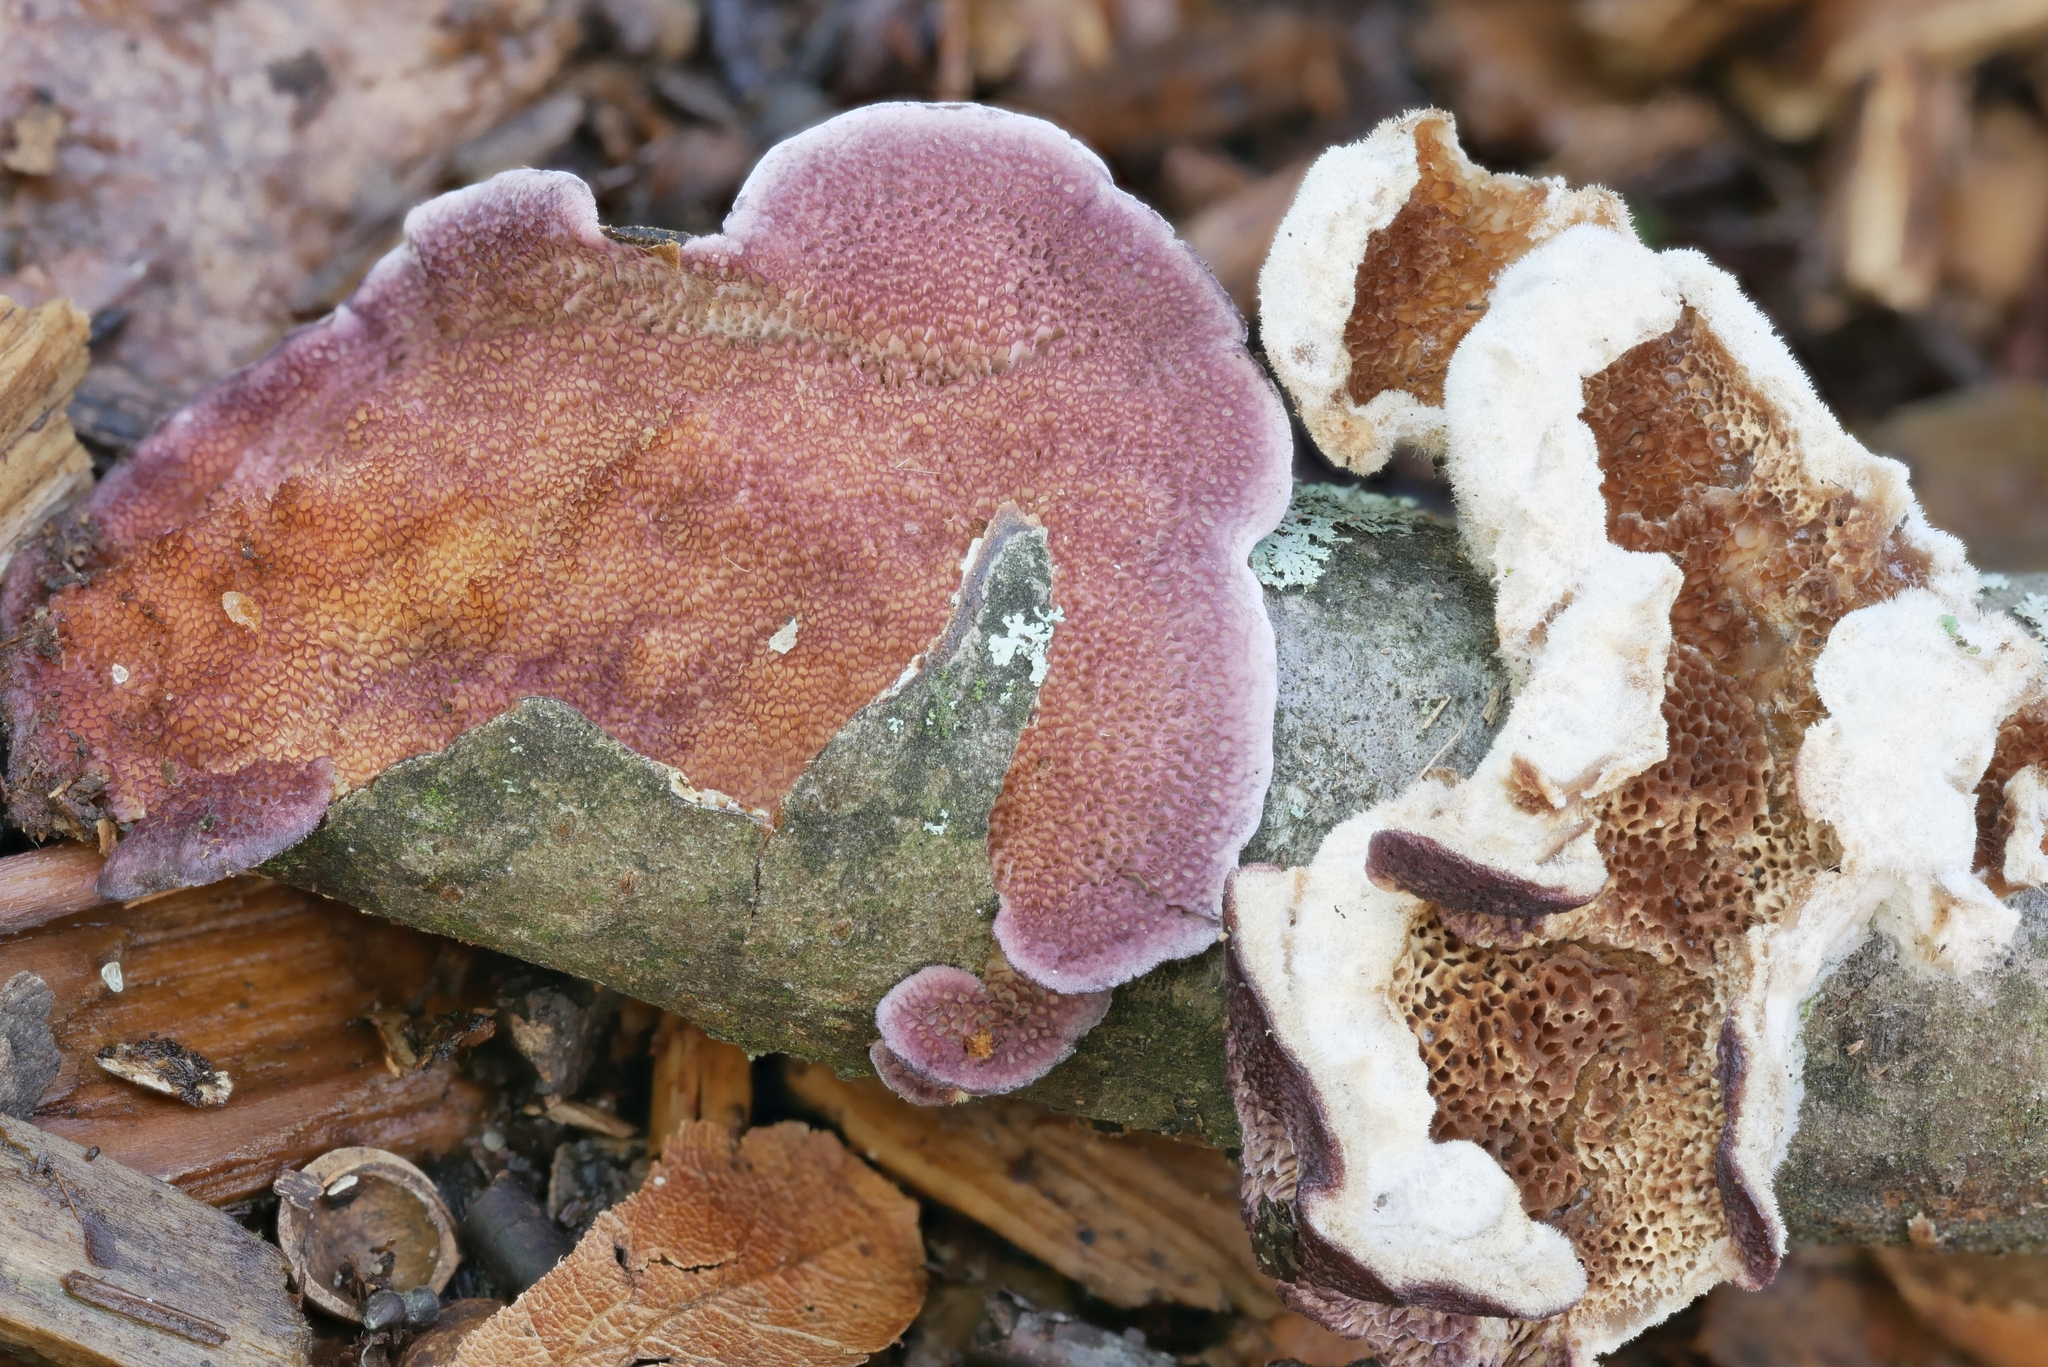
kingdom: Fungi
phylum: Basidiomycota
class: Agaricomycetes
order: Hymenochaetales
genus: Trichaptum
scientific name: Trichaptum subchartaceum
